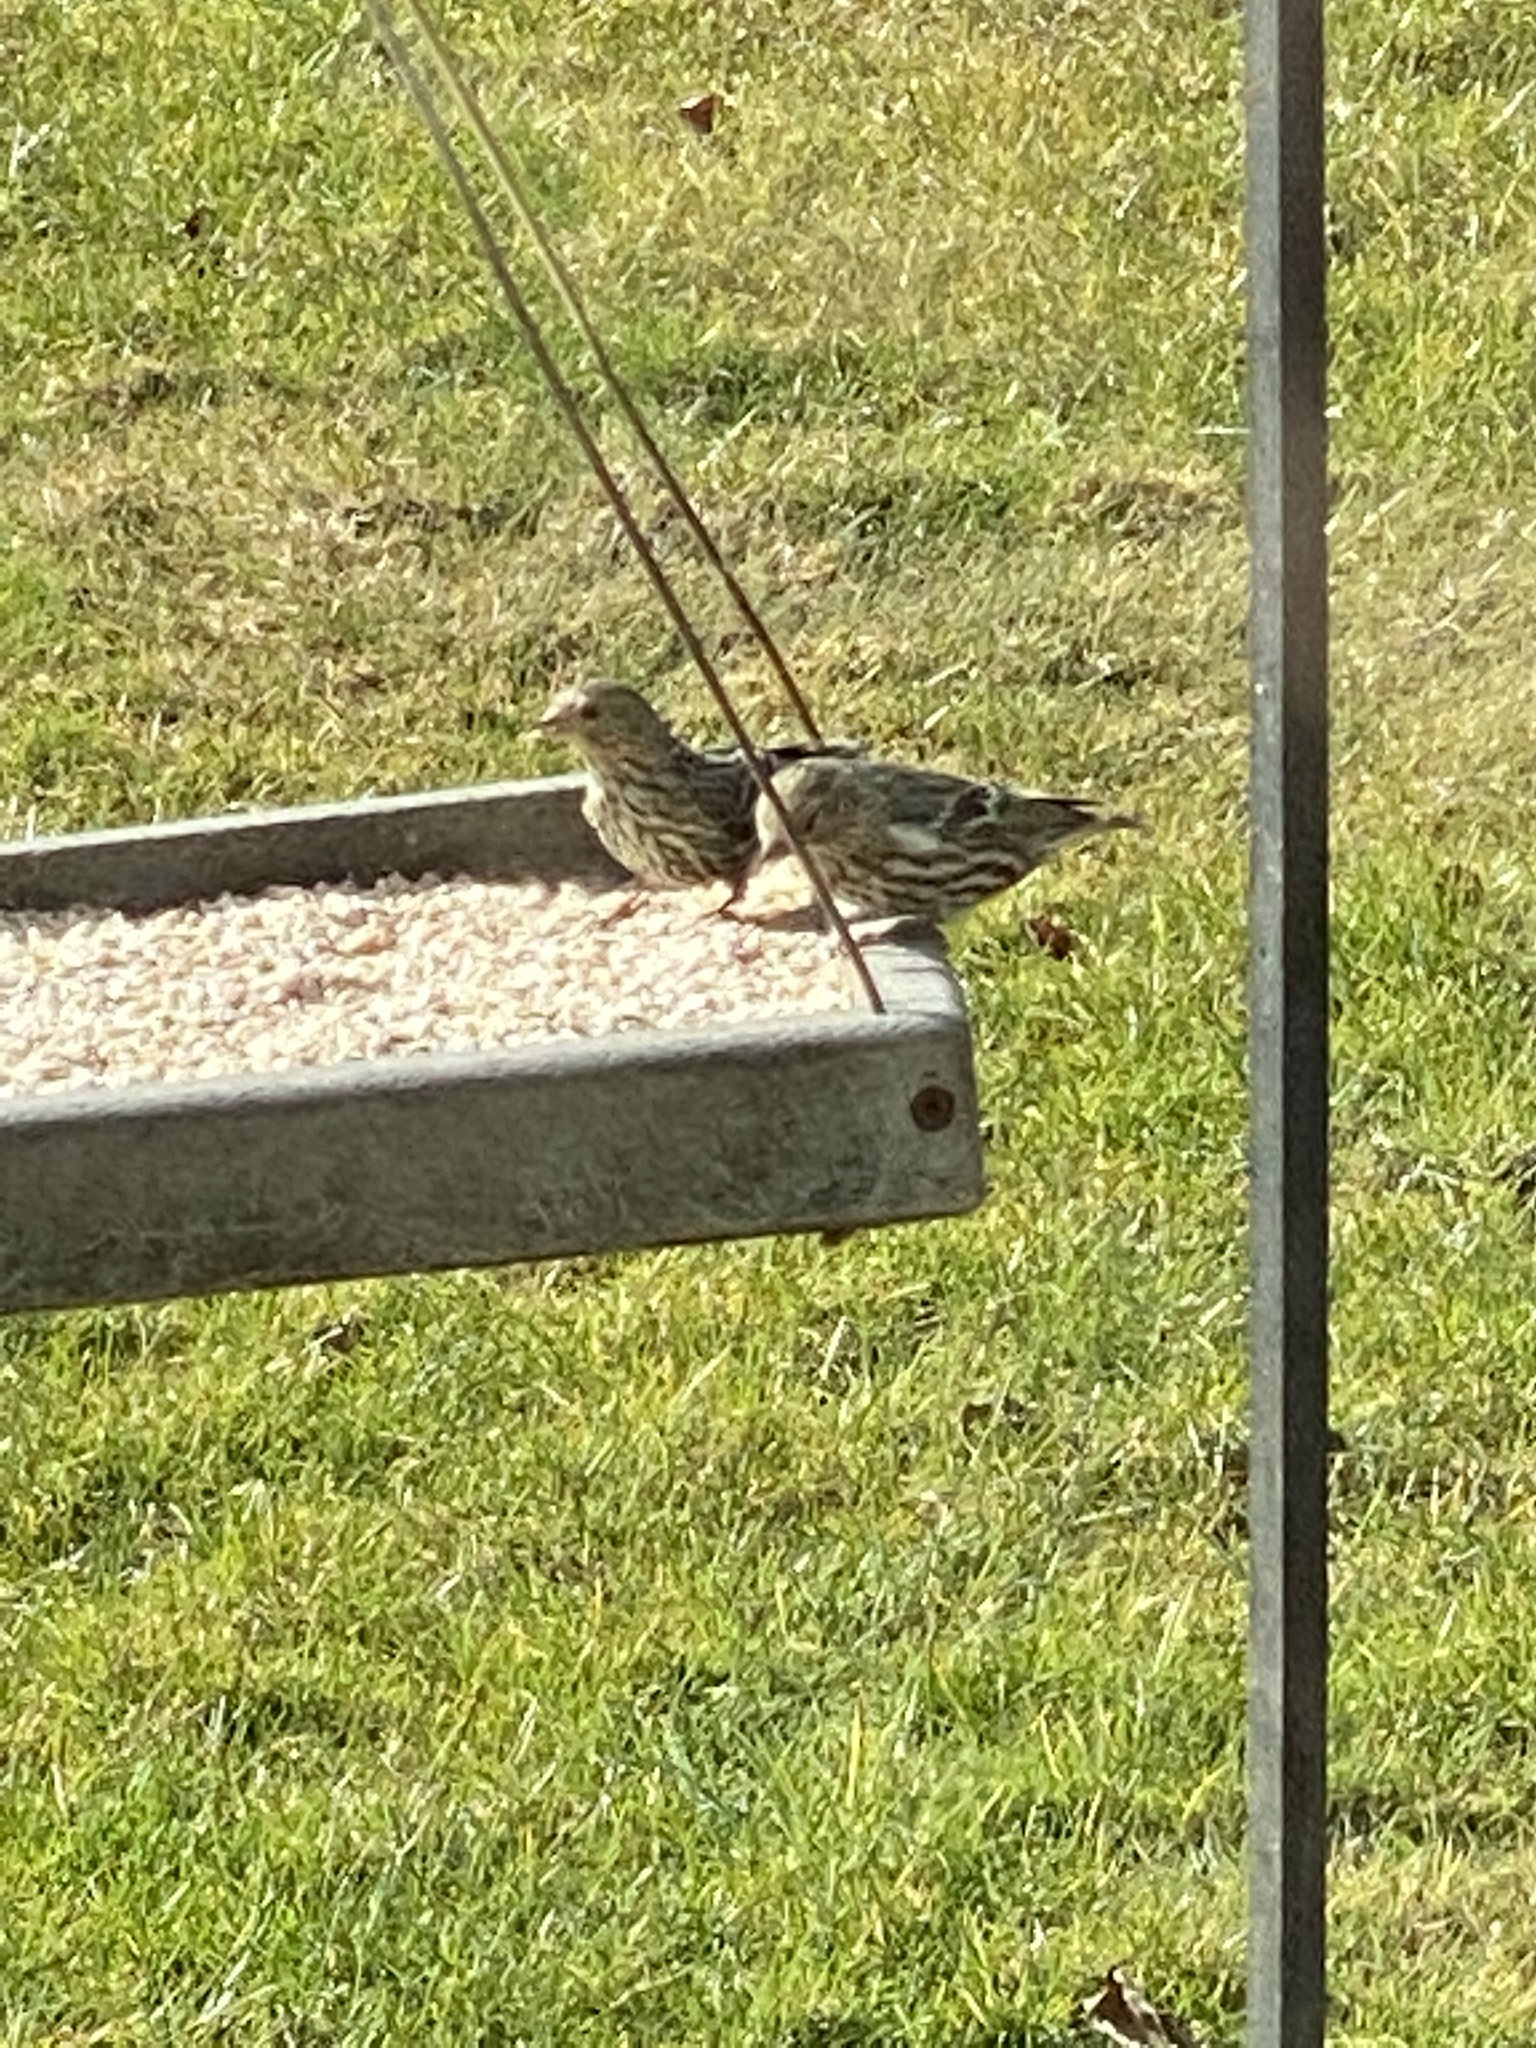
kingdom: Animalia
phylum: Chordata
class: Aves
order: Passeriformes
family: Fringillidae
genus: Spinus
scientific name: Spinus pinus
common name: Pine siskin
